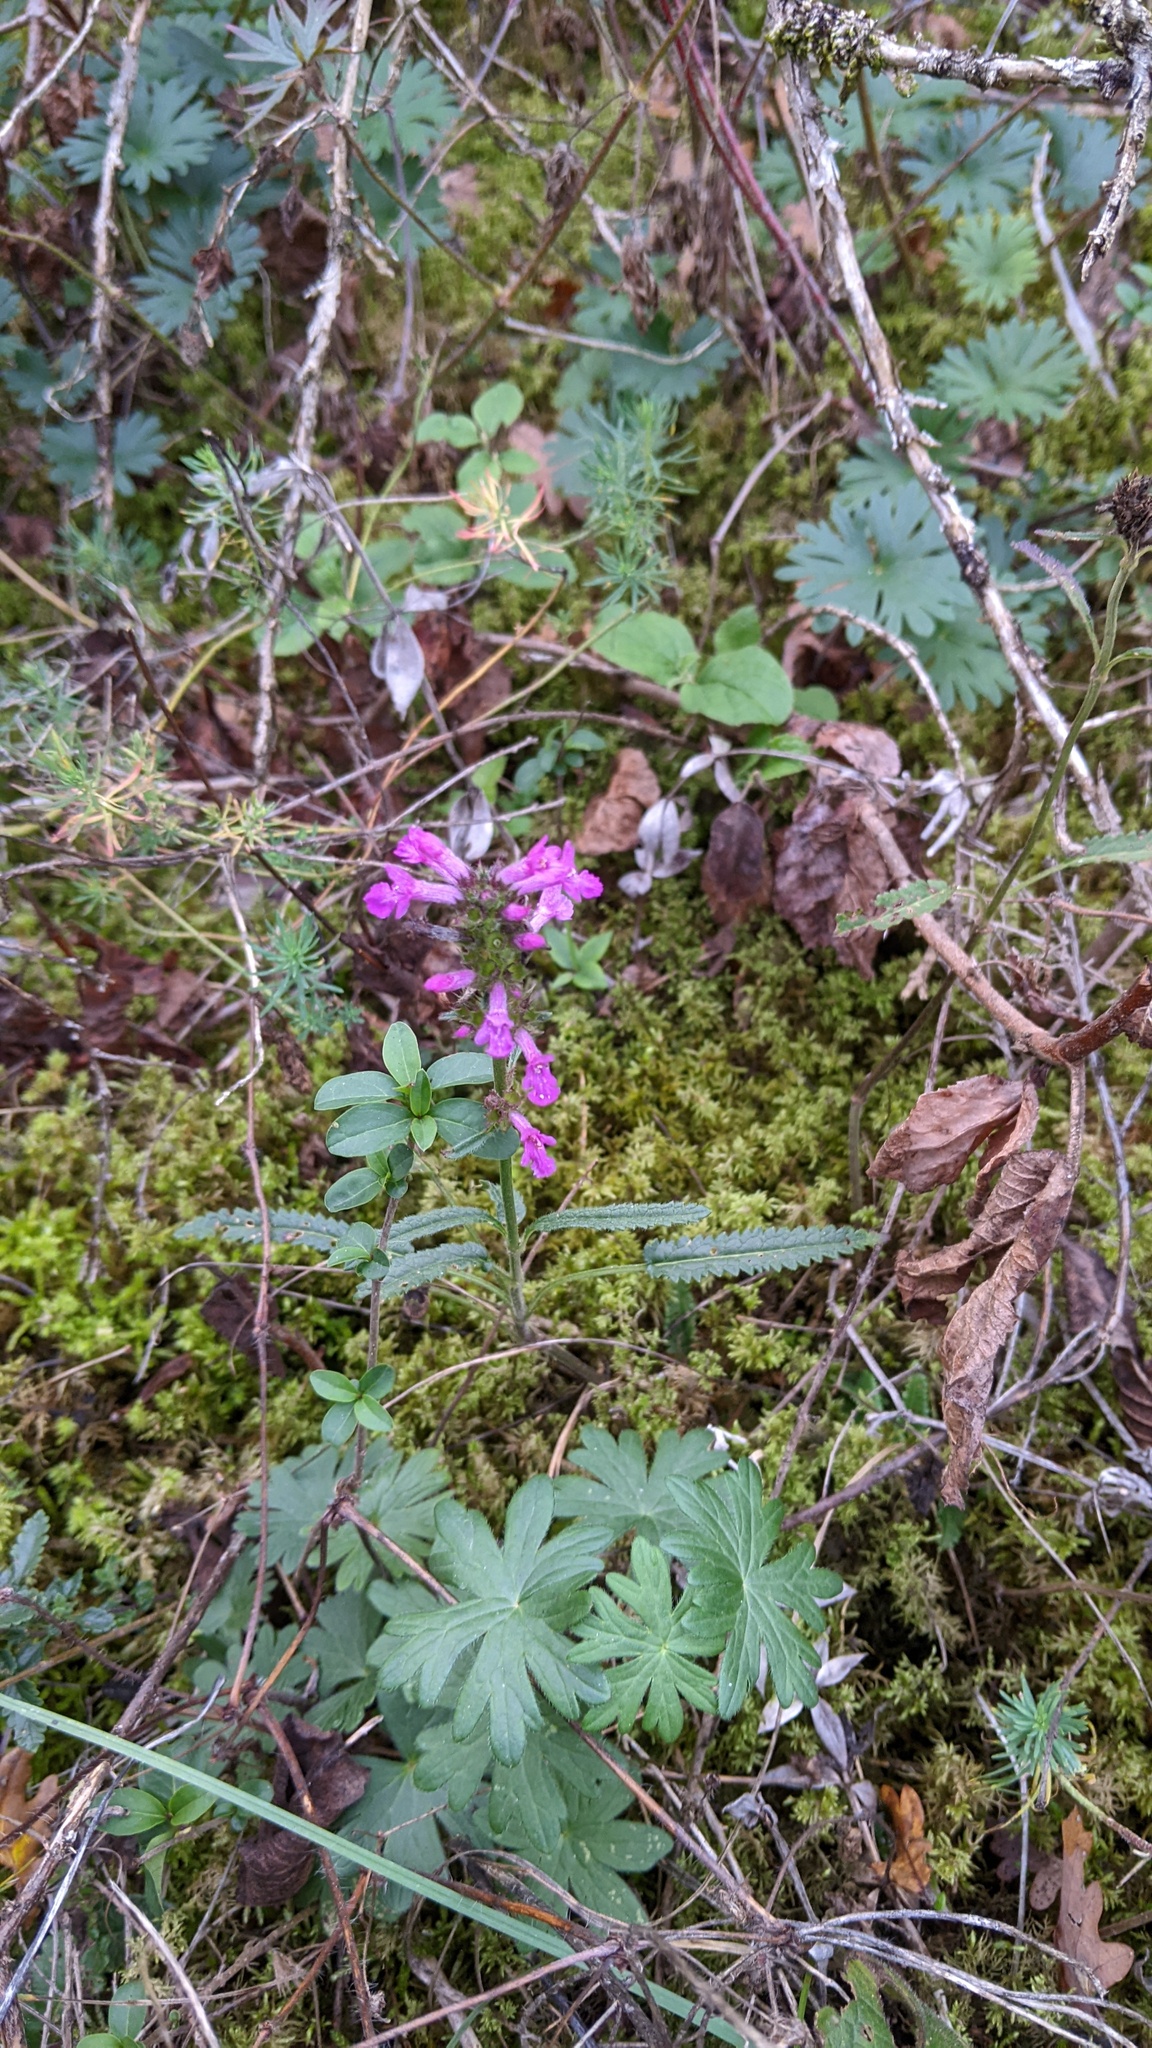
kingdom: Plantae
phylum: Tracheophyta
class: Magnoliopsida
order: Lamiales
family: Lamiaceae
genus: Betonica
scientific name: Betonica officinalis
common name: Bishop's-wort
